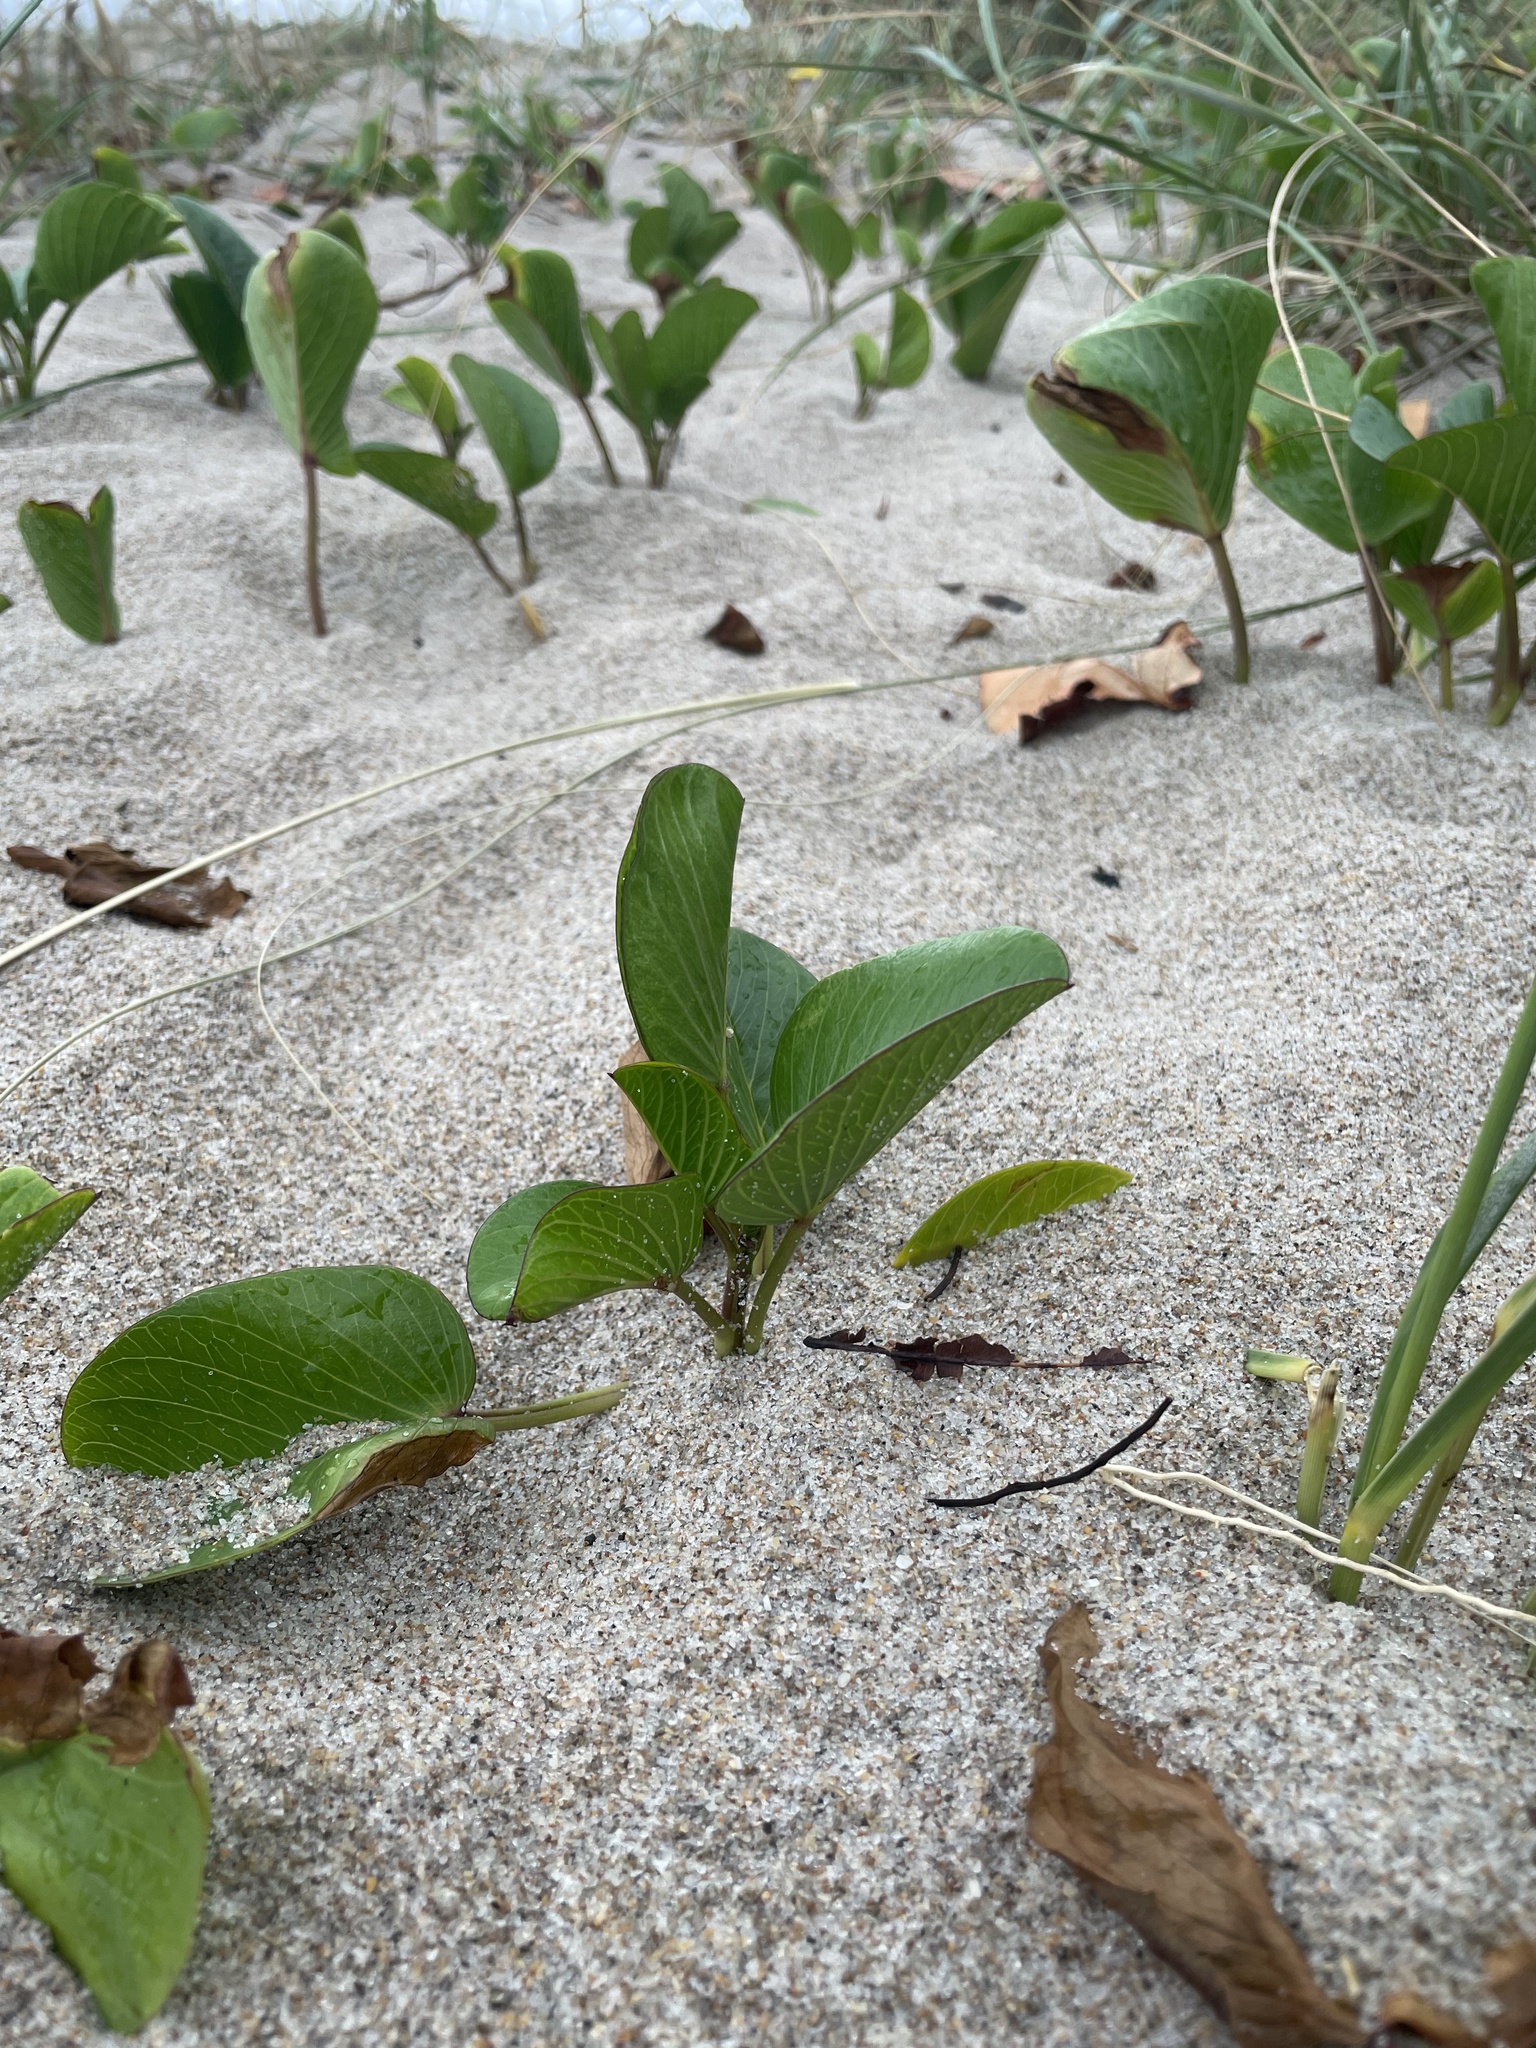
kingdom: Plantae
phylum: Tracheophyta
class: Magnoliopsida
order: Solanales
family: Convolvulaceae
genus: Ipomoea
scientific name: Ipomoea pes-caprae
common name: Beach morning glory
